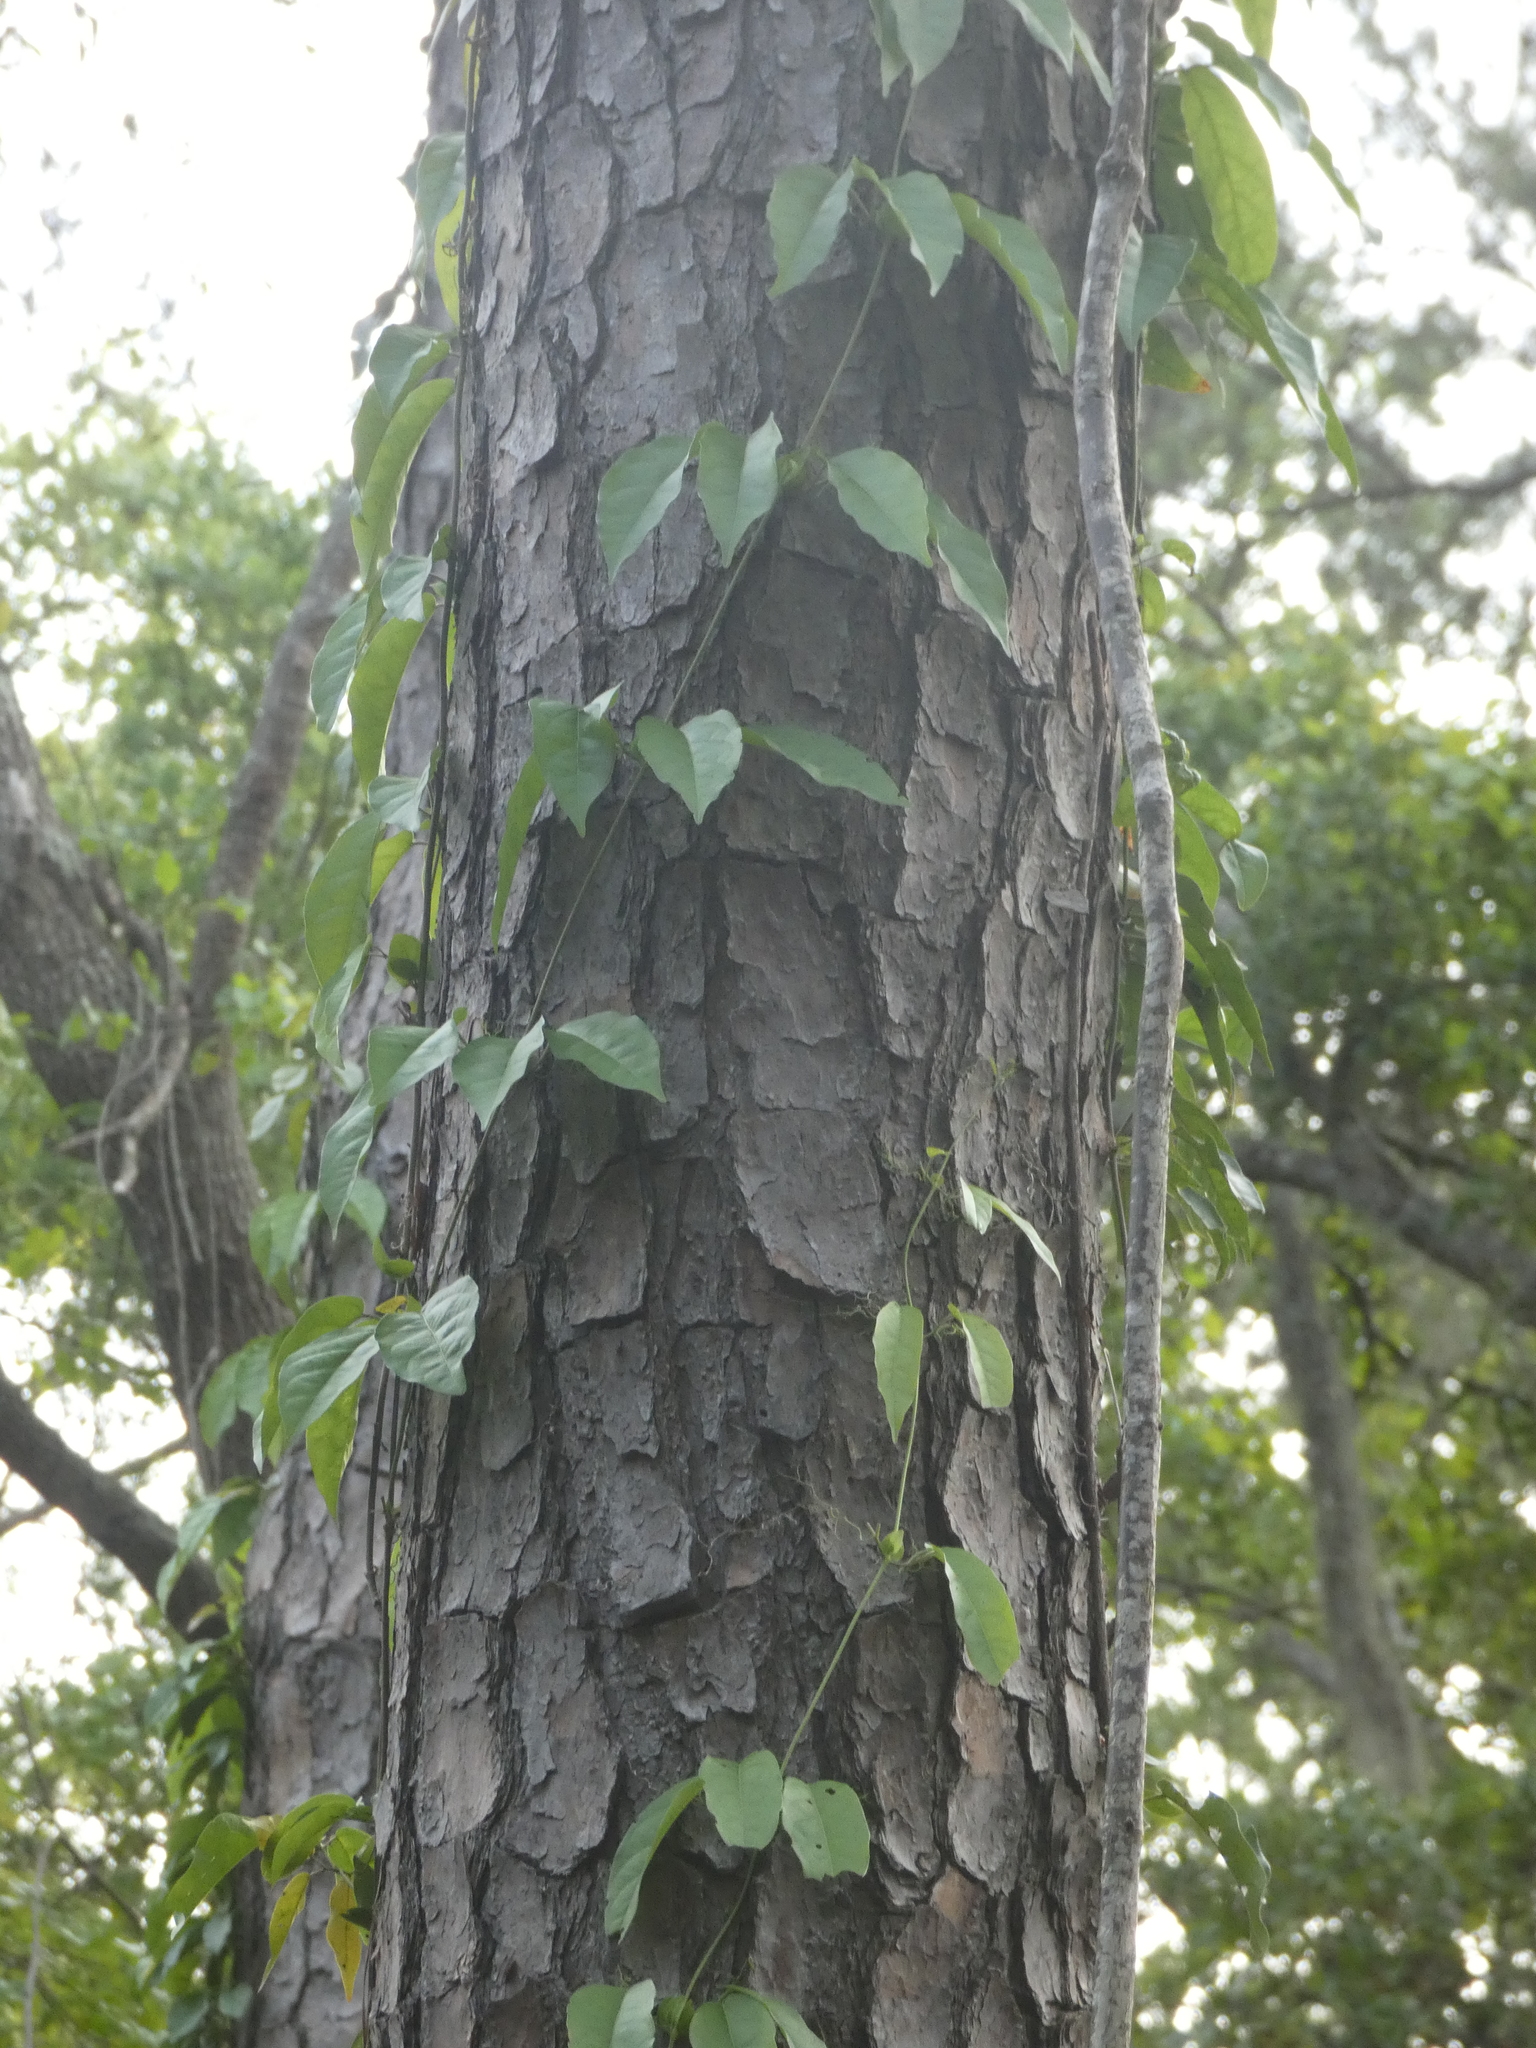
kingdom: Plantae
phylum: Tracheophyta
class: Magnoliopsida
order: Lamiales
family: Bignoniaceae
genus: Bignonia
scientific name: Bignonia capreolata
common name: Crossvine
